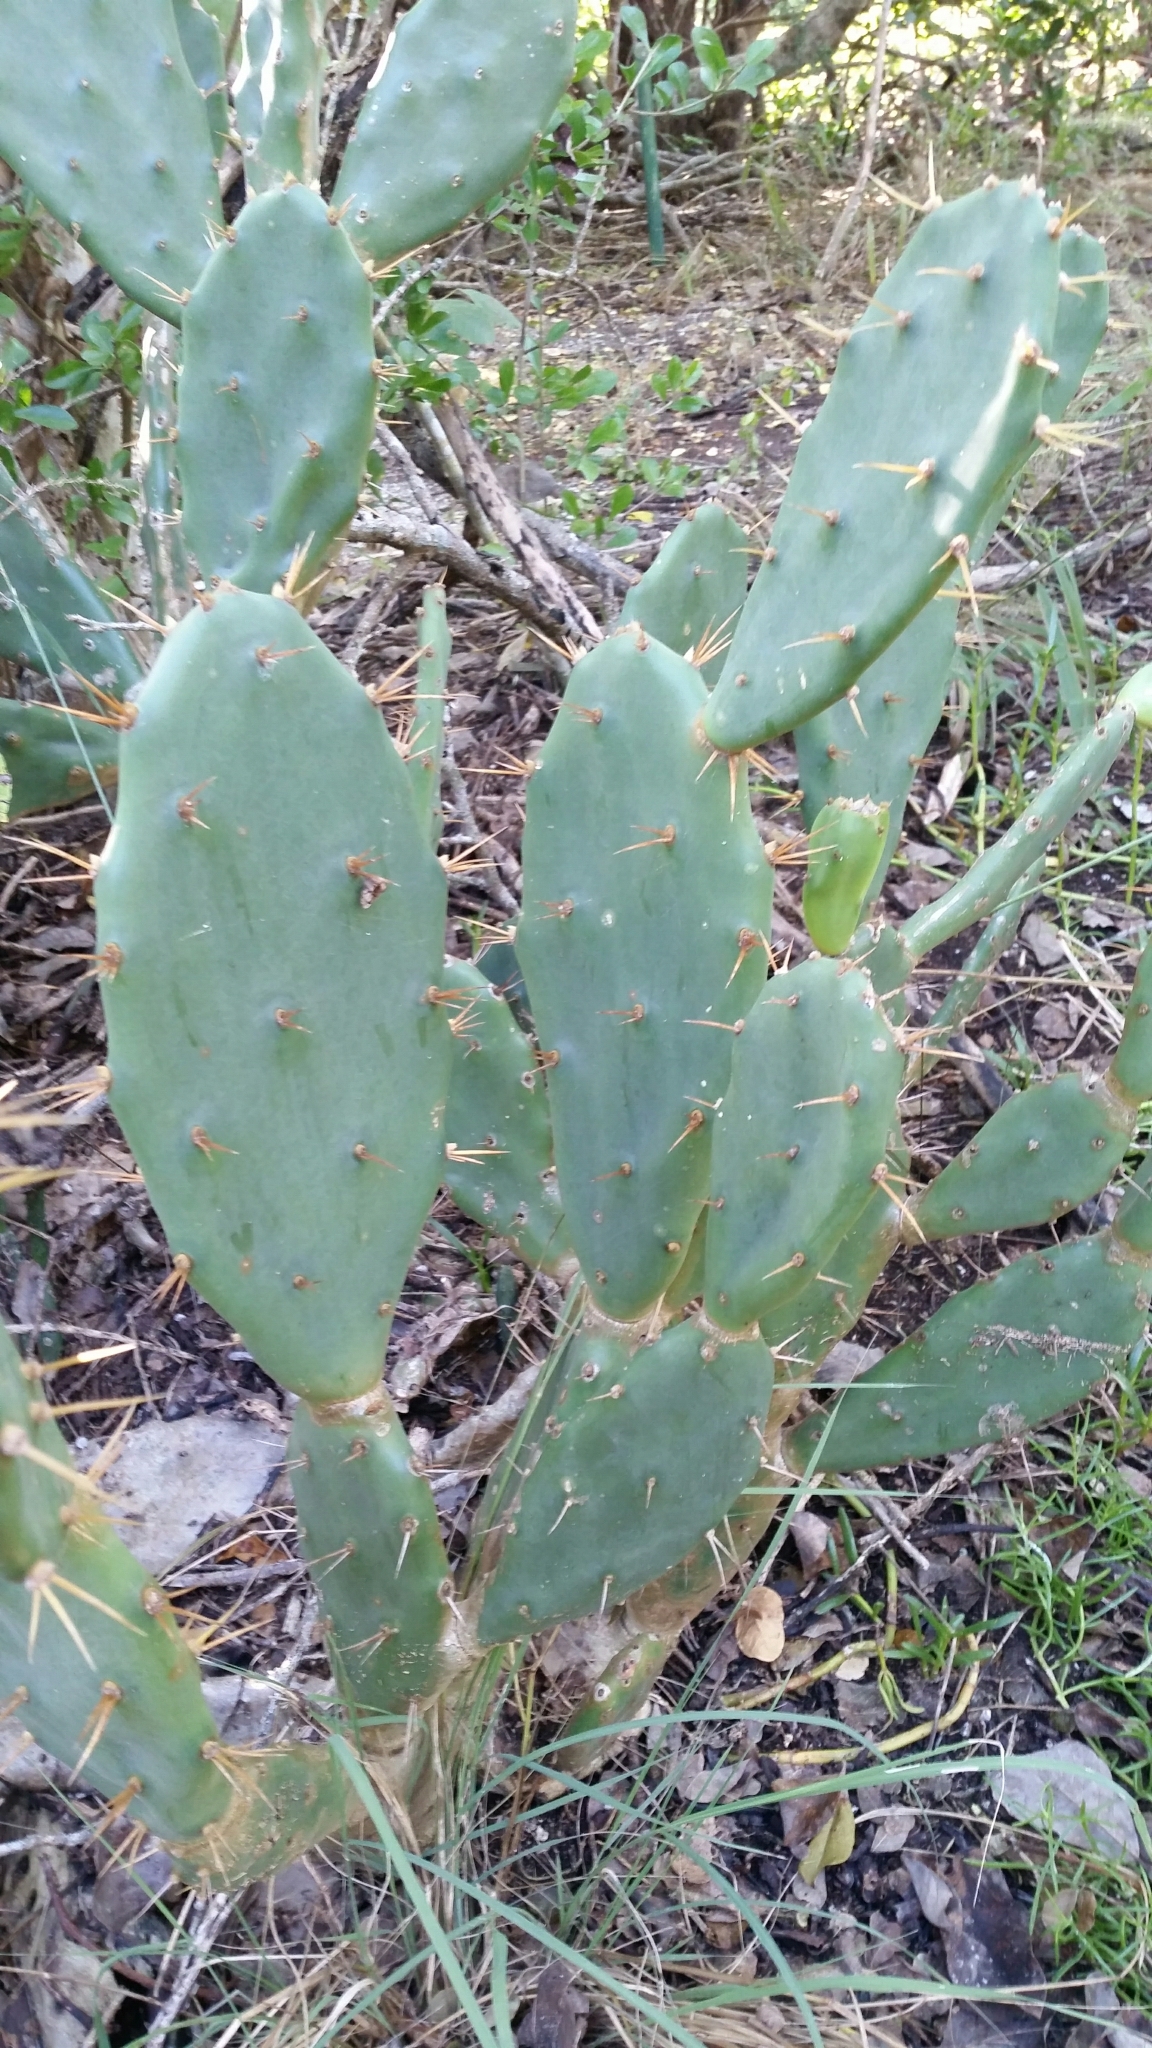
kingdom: Plantae
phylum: Tracheophyta
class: Magnoliopsida
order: Caryophyllales
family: Cactaceae
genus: Opuntia
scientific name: Opuntia stricta
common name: Erect pricklypear
